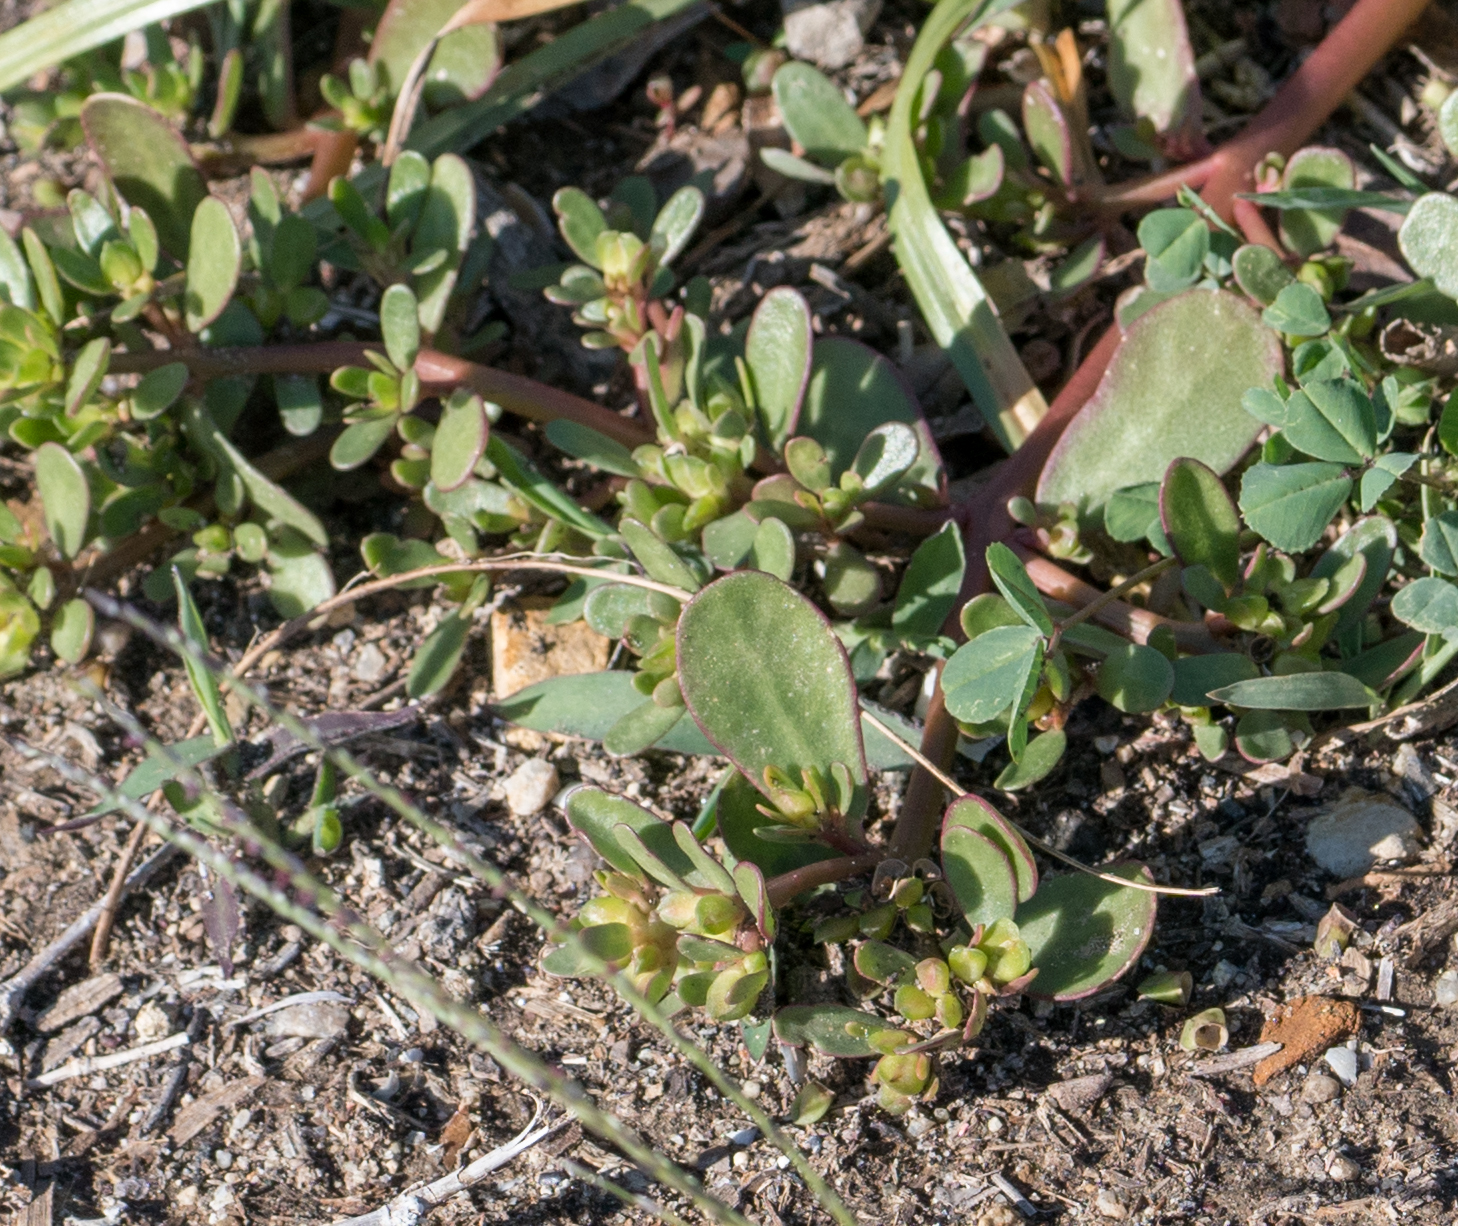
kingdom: Plantae
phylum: Tracheophyta
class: Magnoliopsida
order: Caryophyllales
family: Portulacaceae
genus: Portulaca
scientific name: Portulaca oleracea
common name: Common purslane
